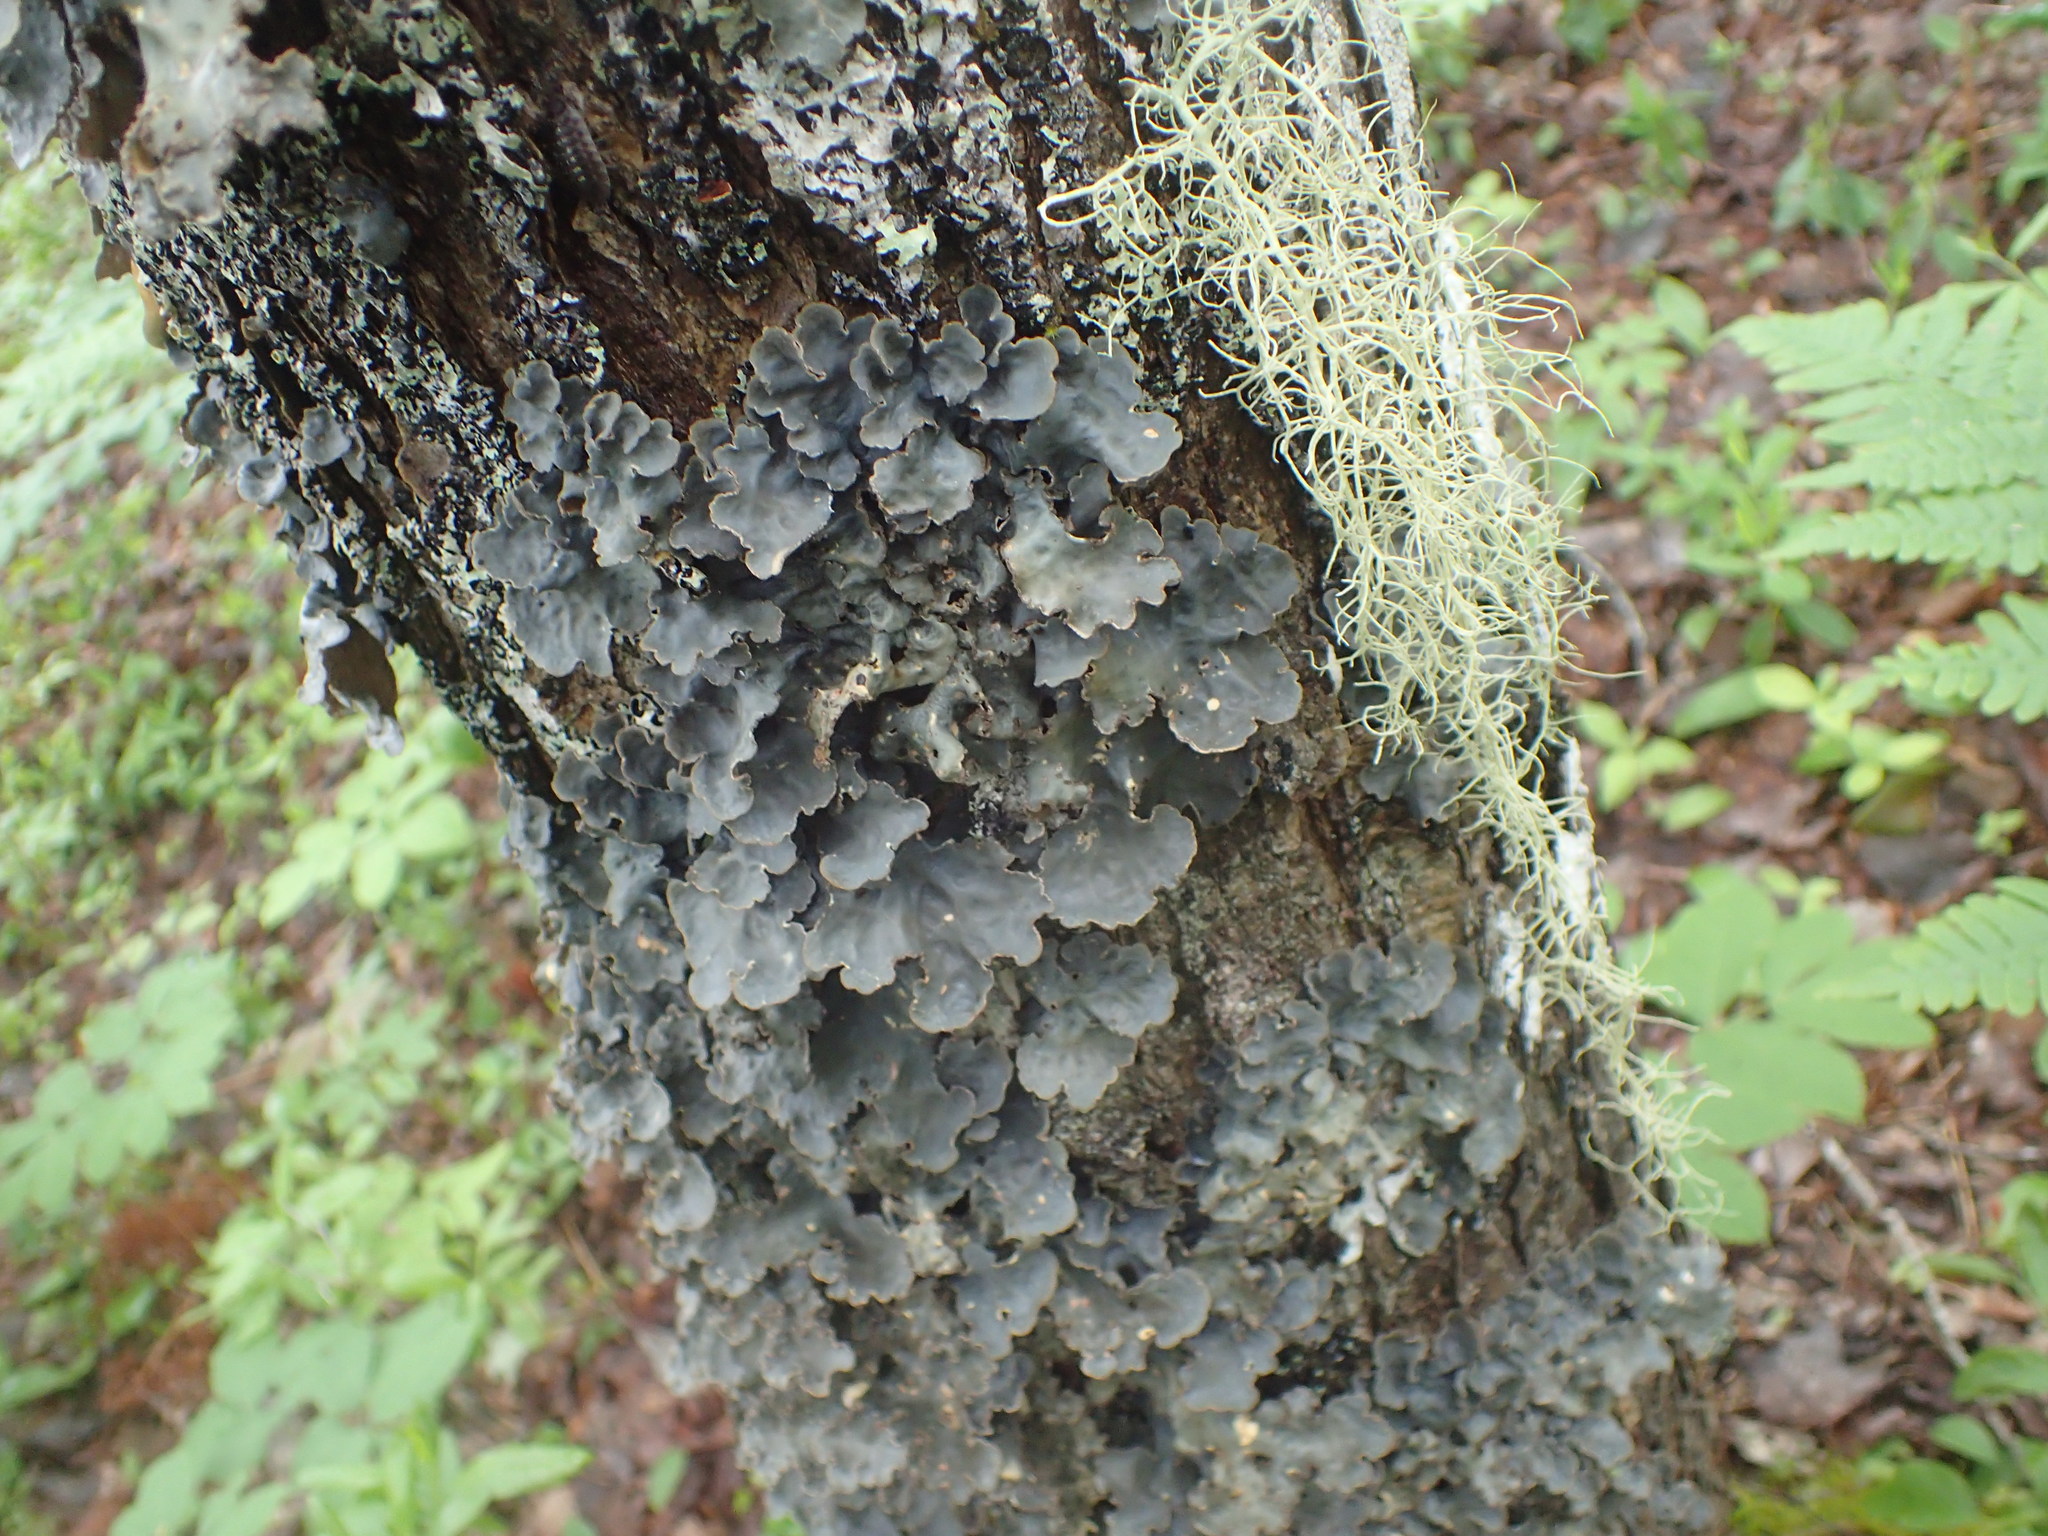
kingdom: Fungi
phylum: Ascomycota
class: Lecanoromycetes
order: Peltigerales
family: Lobariaceae
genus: Lobarina
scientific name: Lobarina scrobiculata
